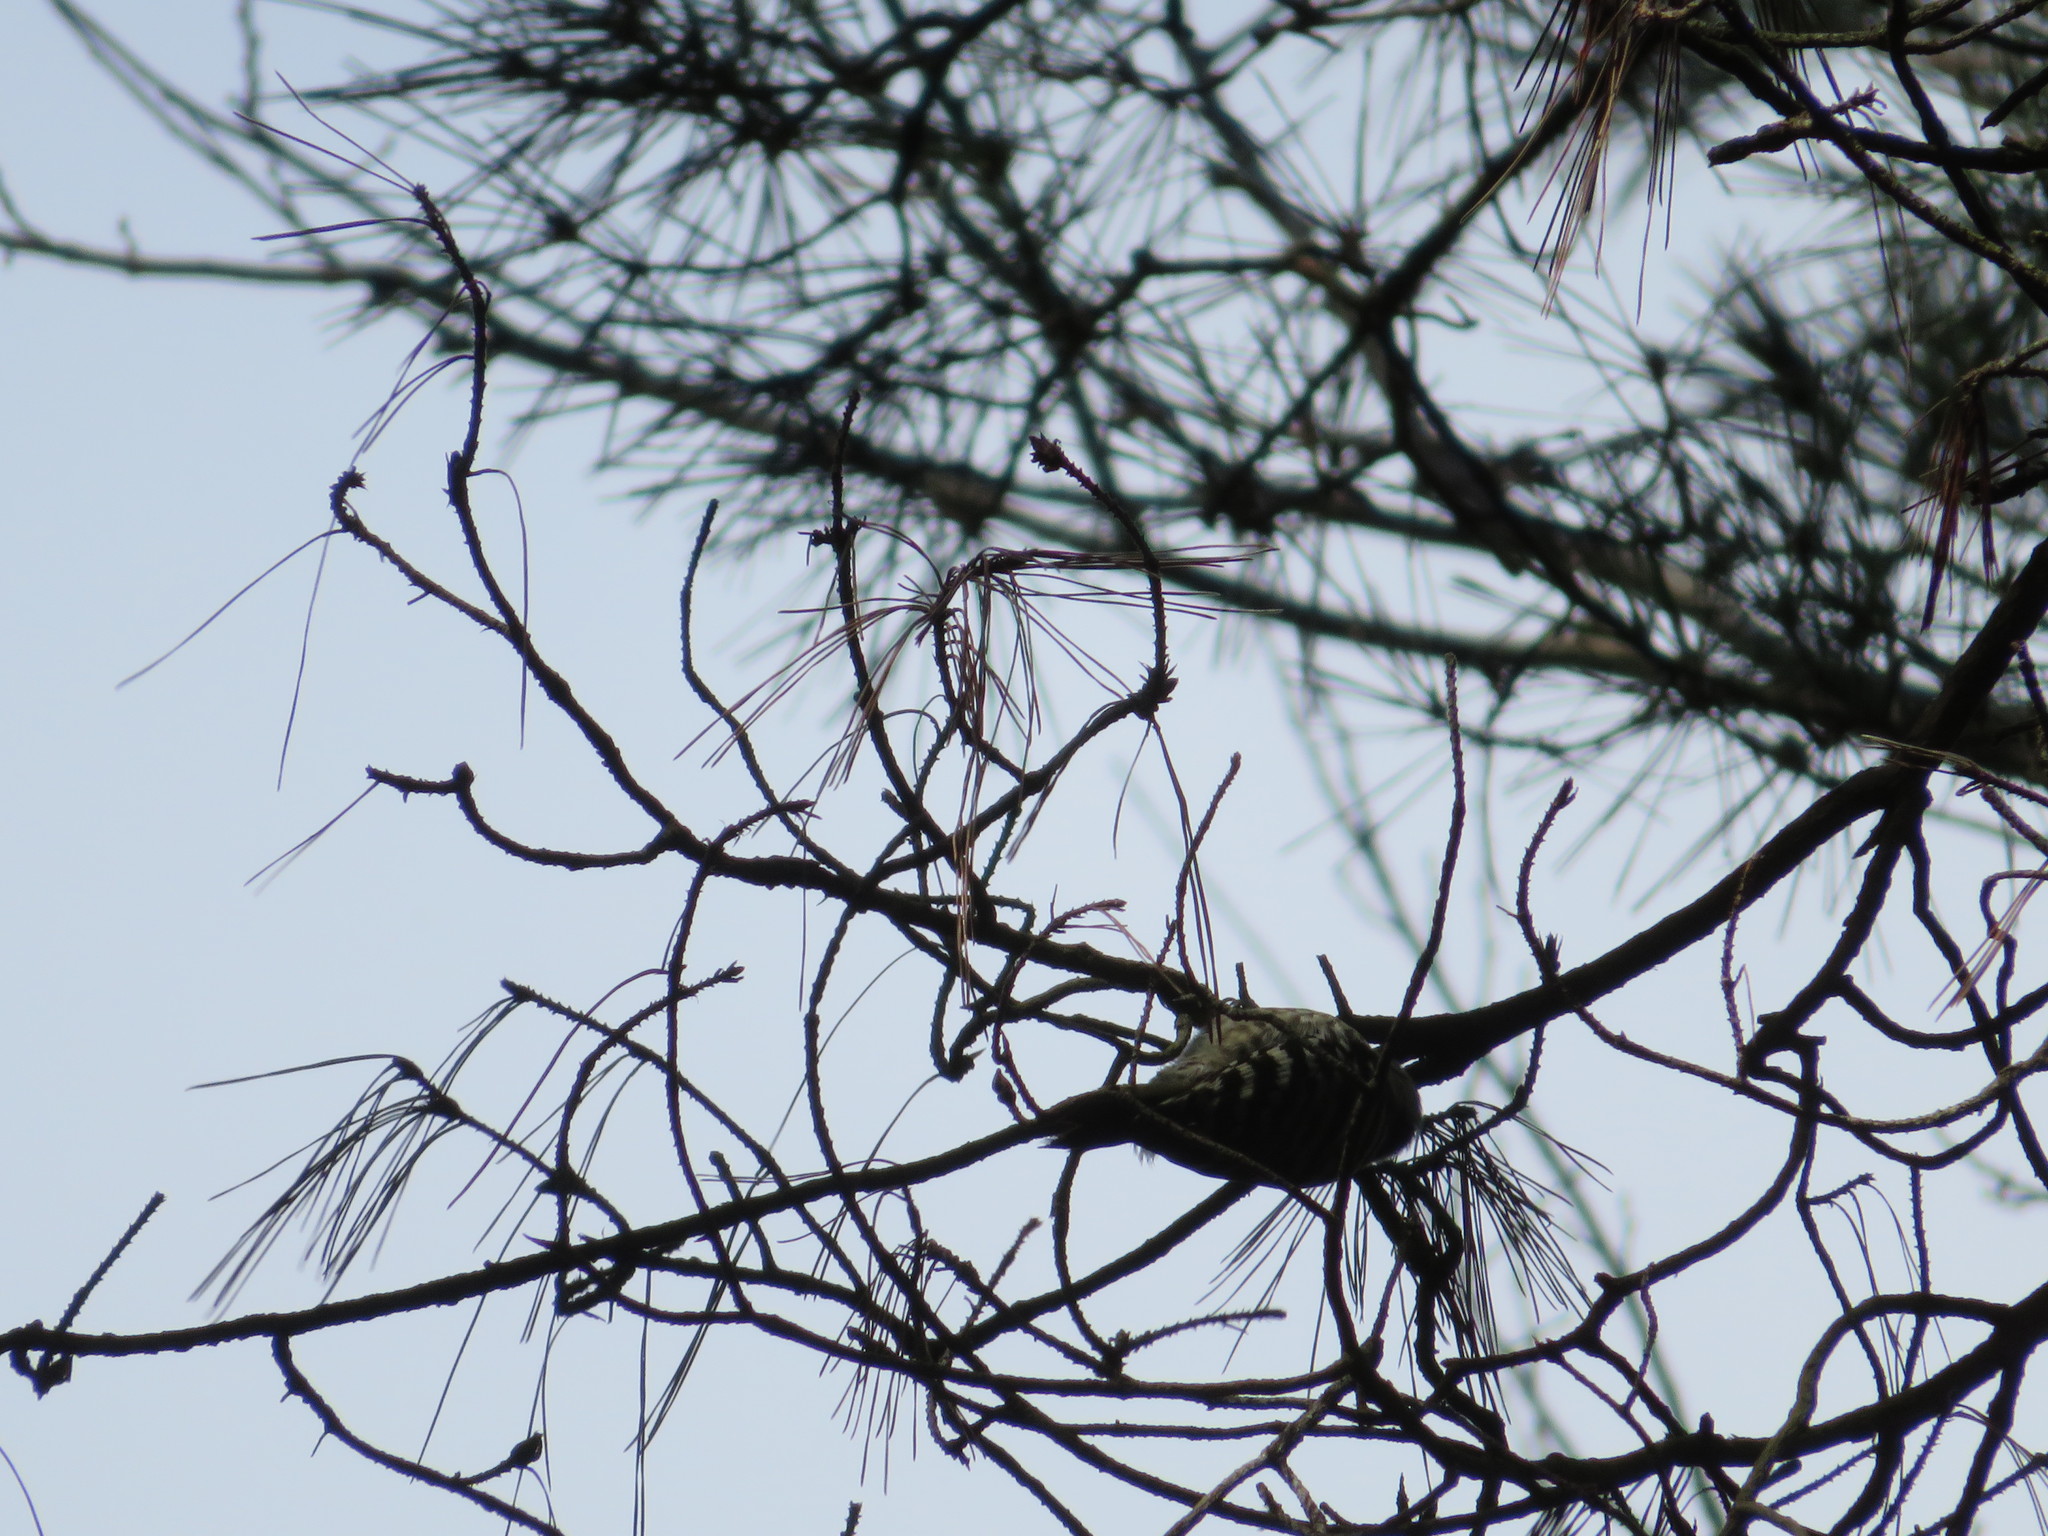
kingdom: Animalia
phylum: Chordata
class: Aves
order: Piciformes
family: Picidae
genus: Yungipicus
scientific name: Yungipicus kizuki
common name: Japanese pygmy woodpecker
